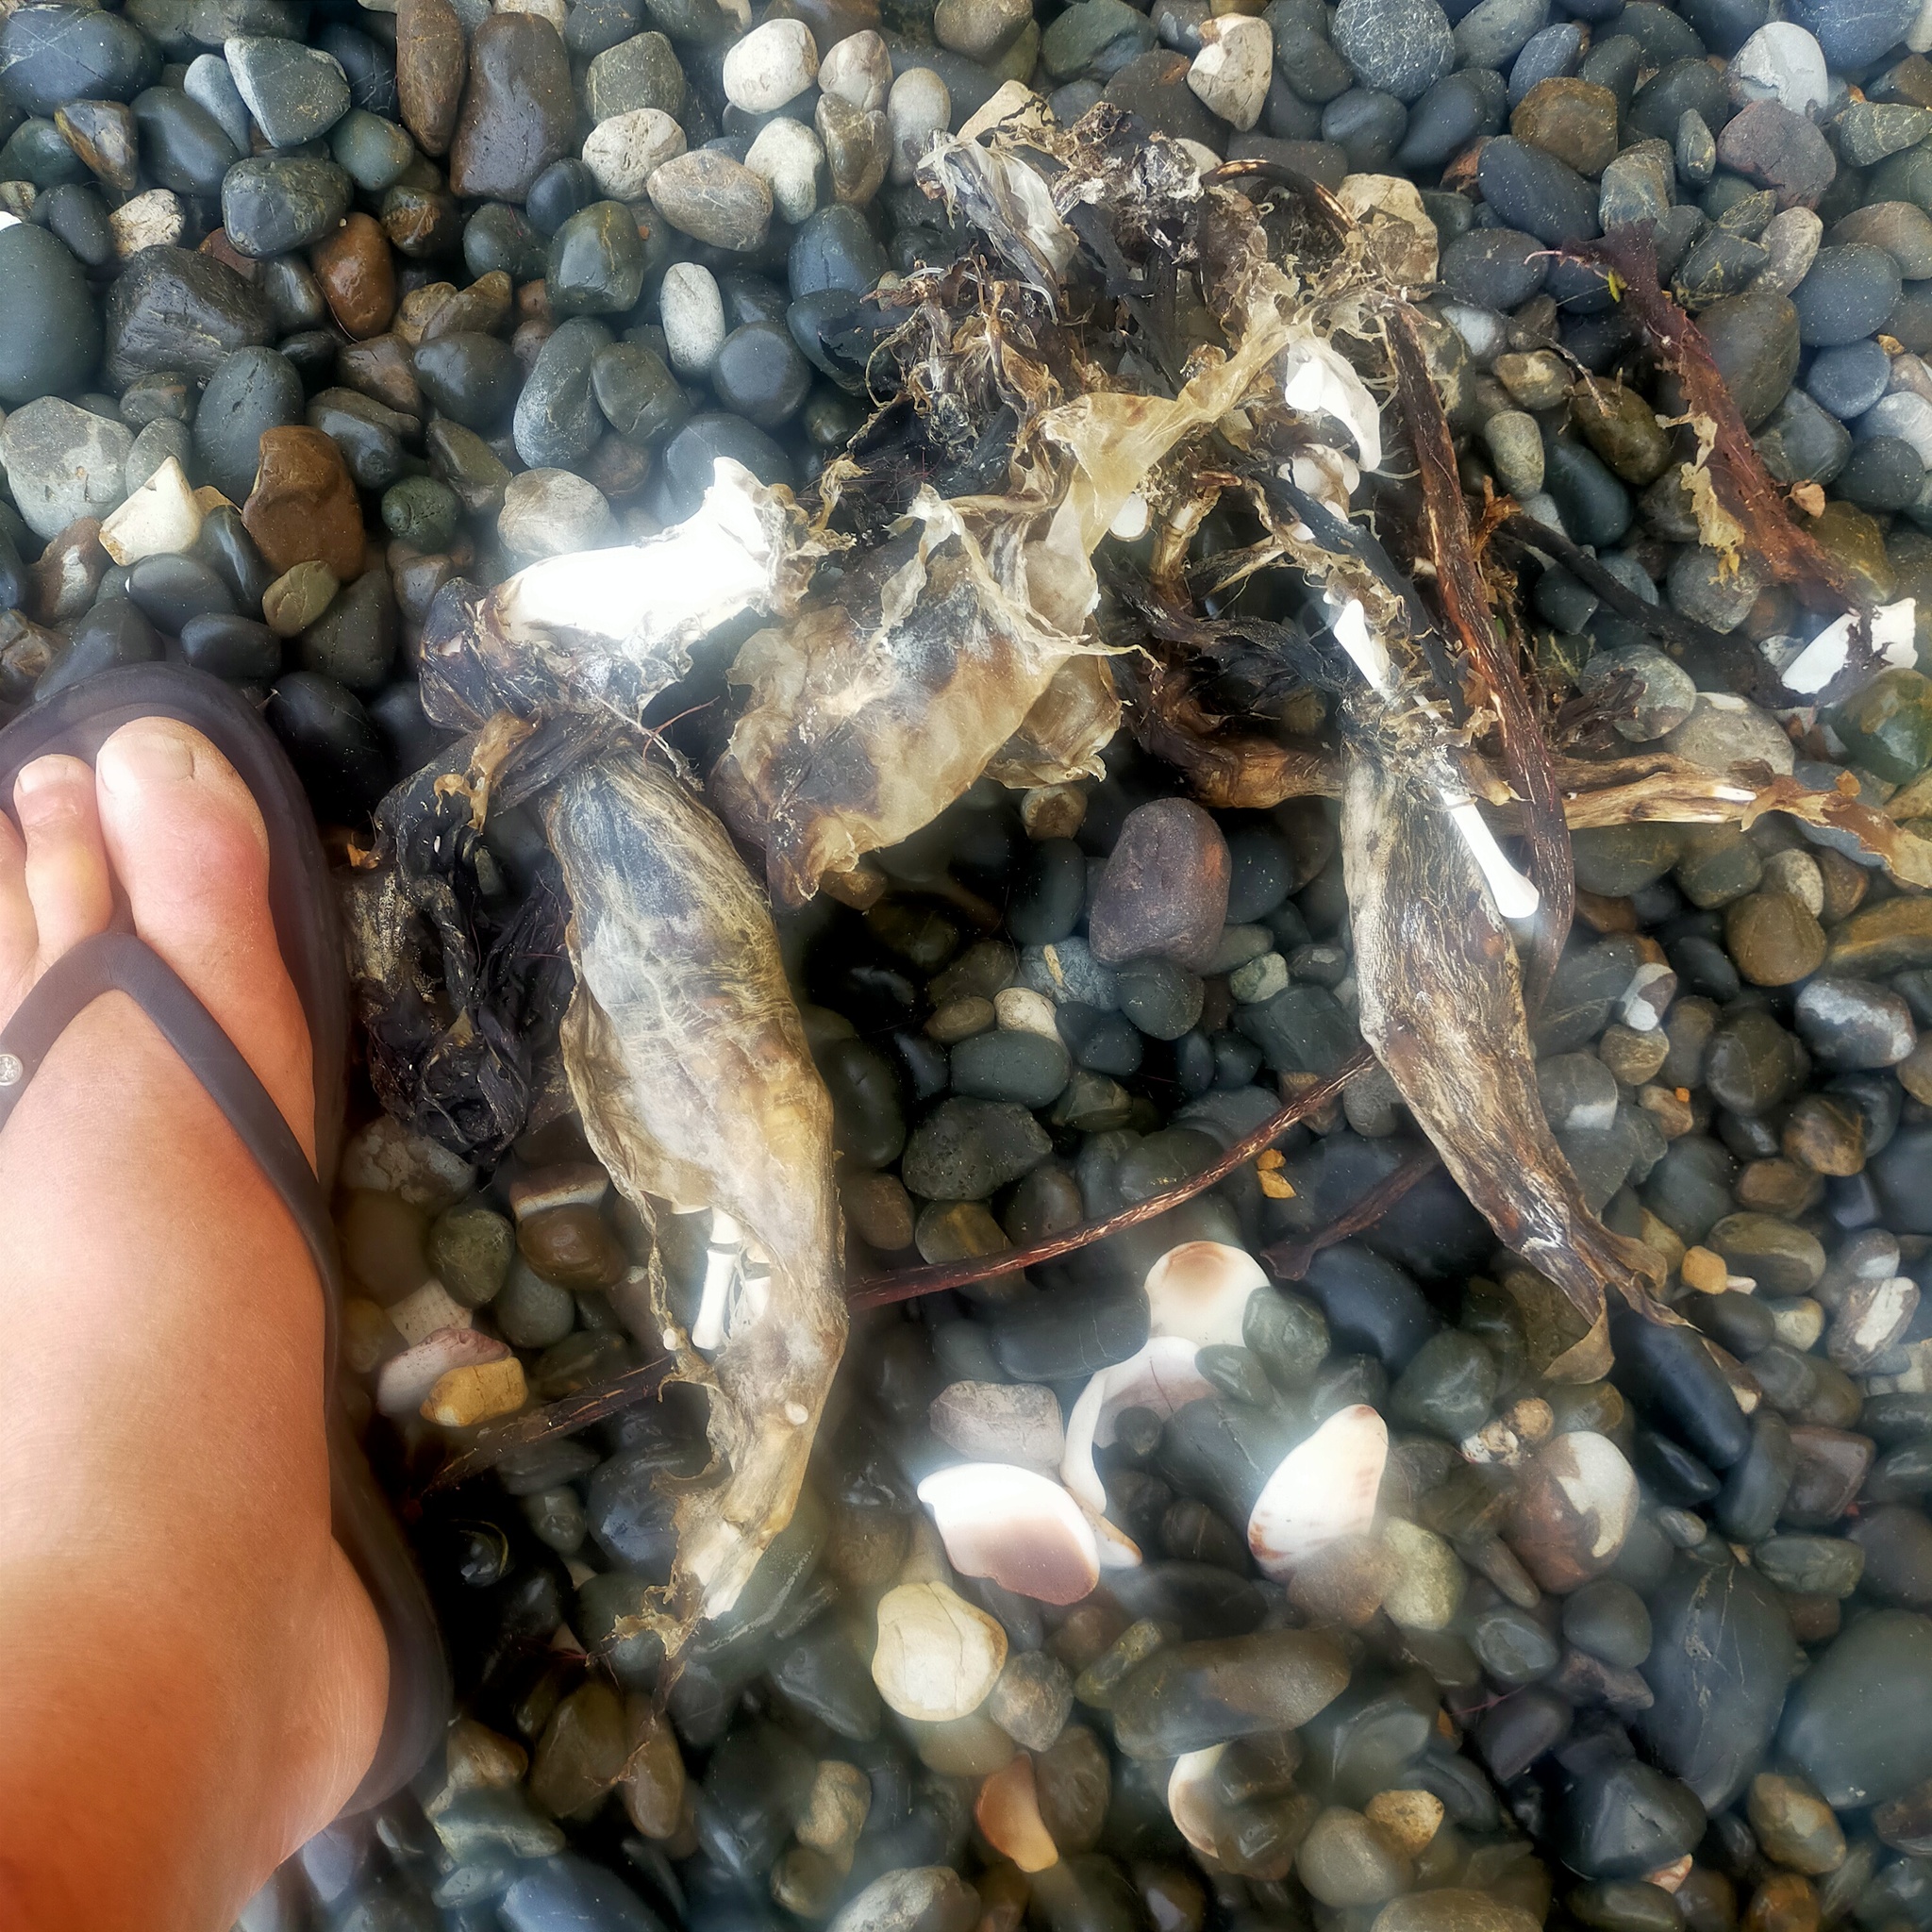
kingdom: Animalia
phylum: Chordata
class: Mammalia
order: Carnivora
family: Otariidae
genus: Arctocephalus
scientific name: Arctocephalus forsteri
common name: New zealand fur seal
